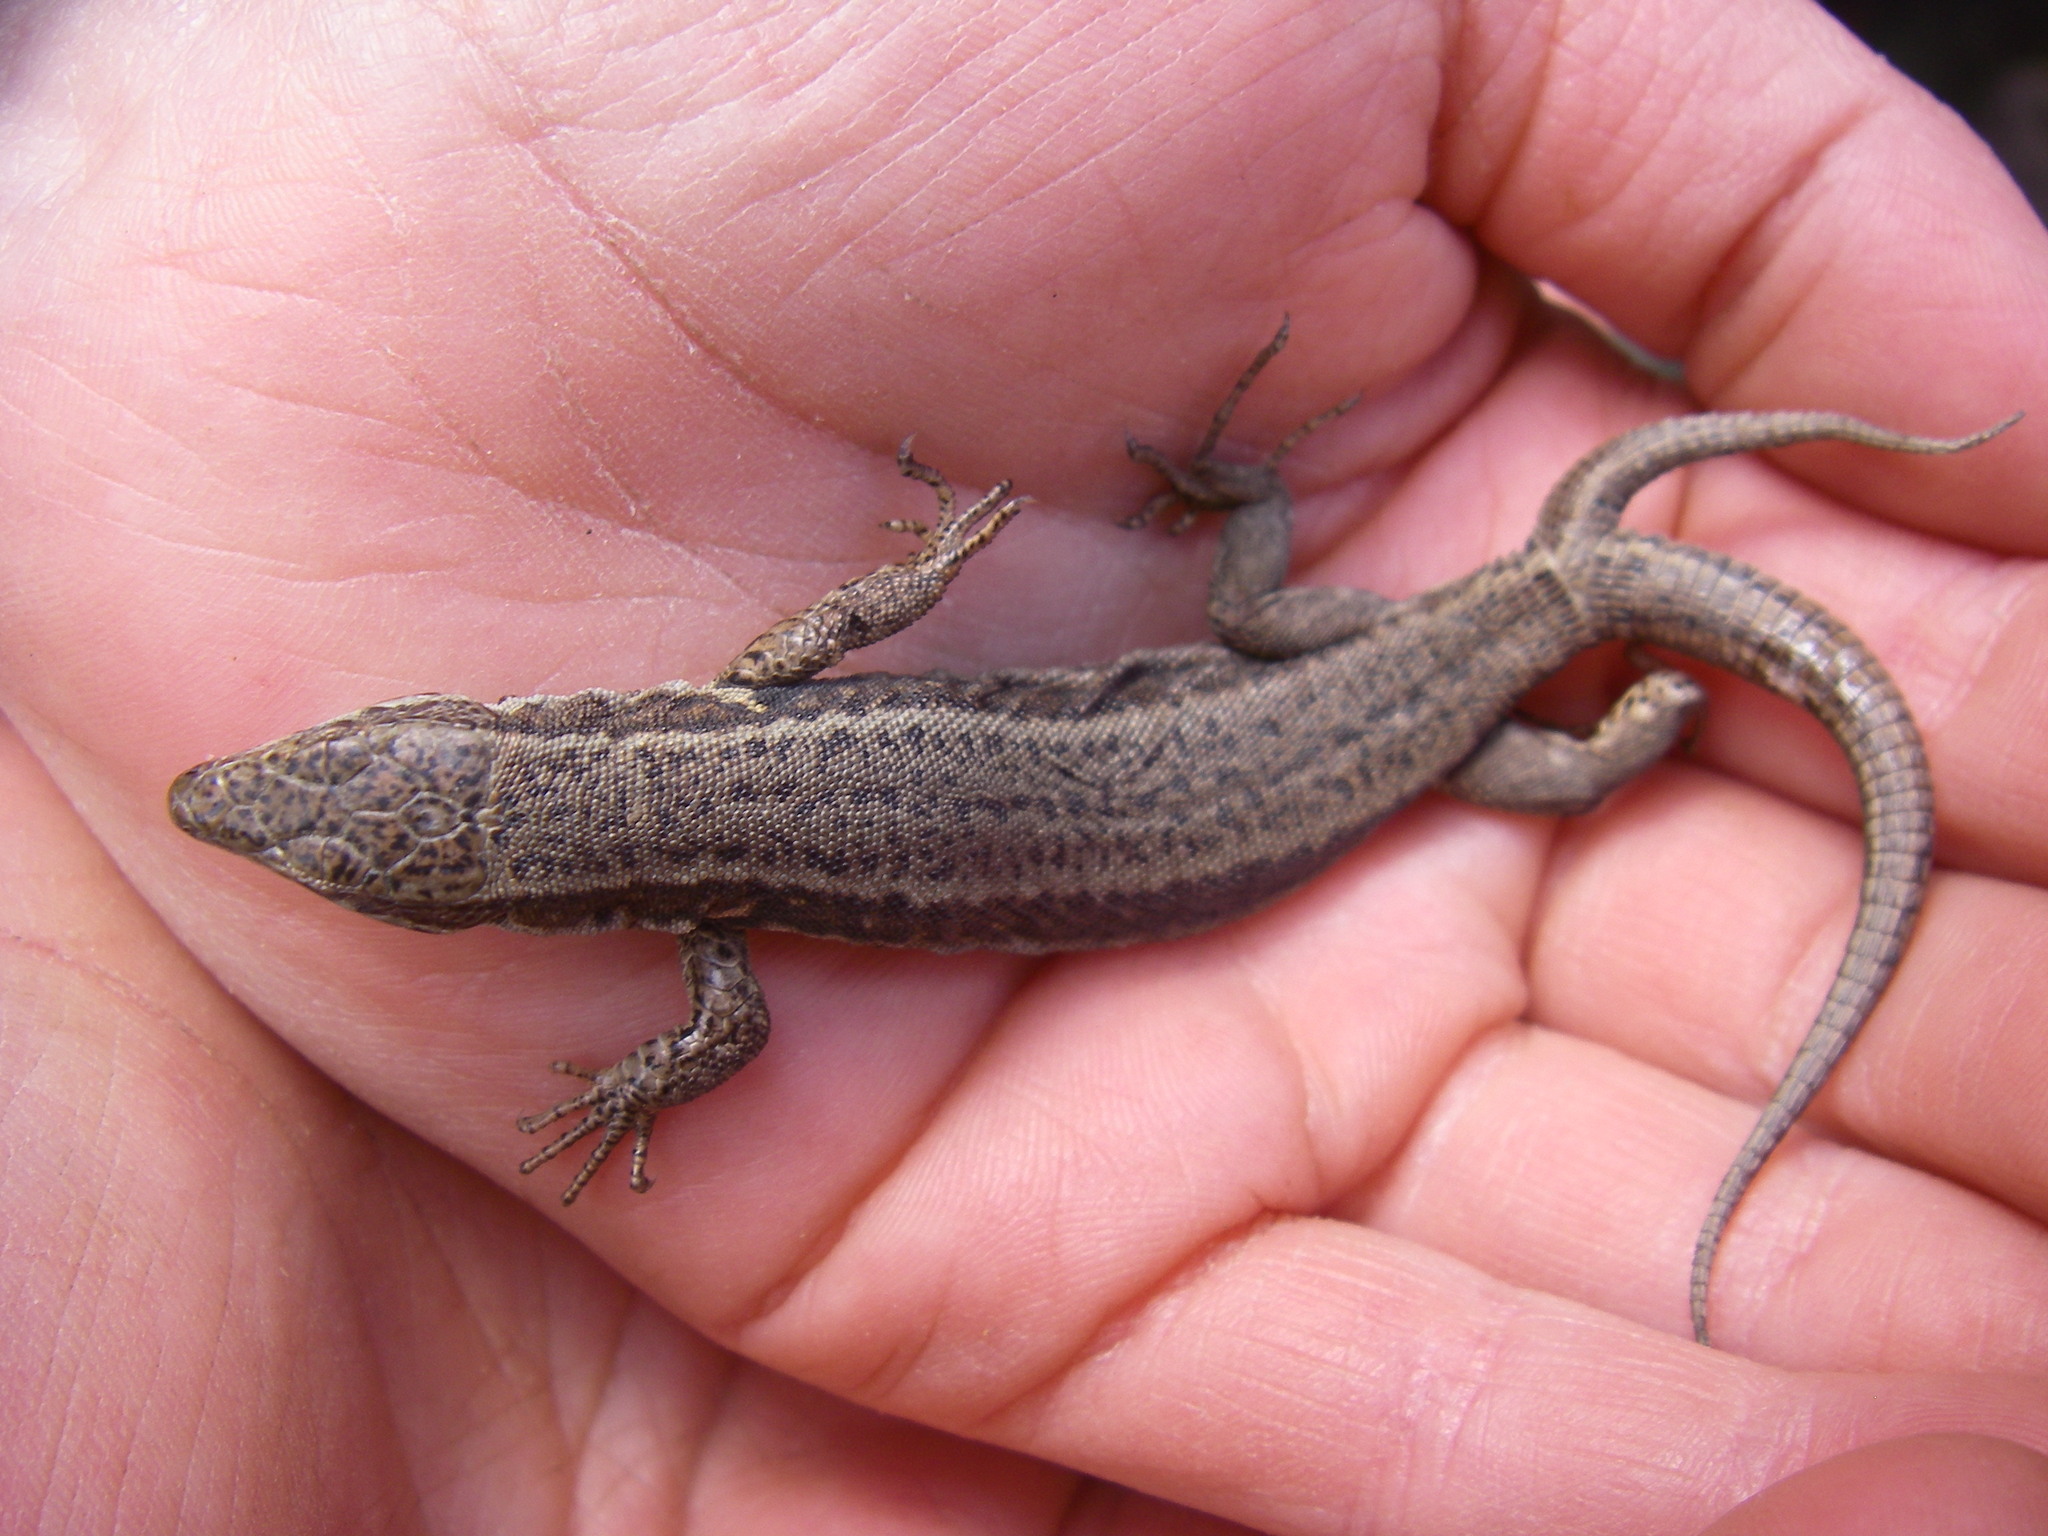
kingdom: Animalia
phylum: Chordata
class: Squamata
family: Lacertidae
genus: Podarcis
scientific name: Podarcis muralis
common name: Common wall lizard
